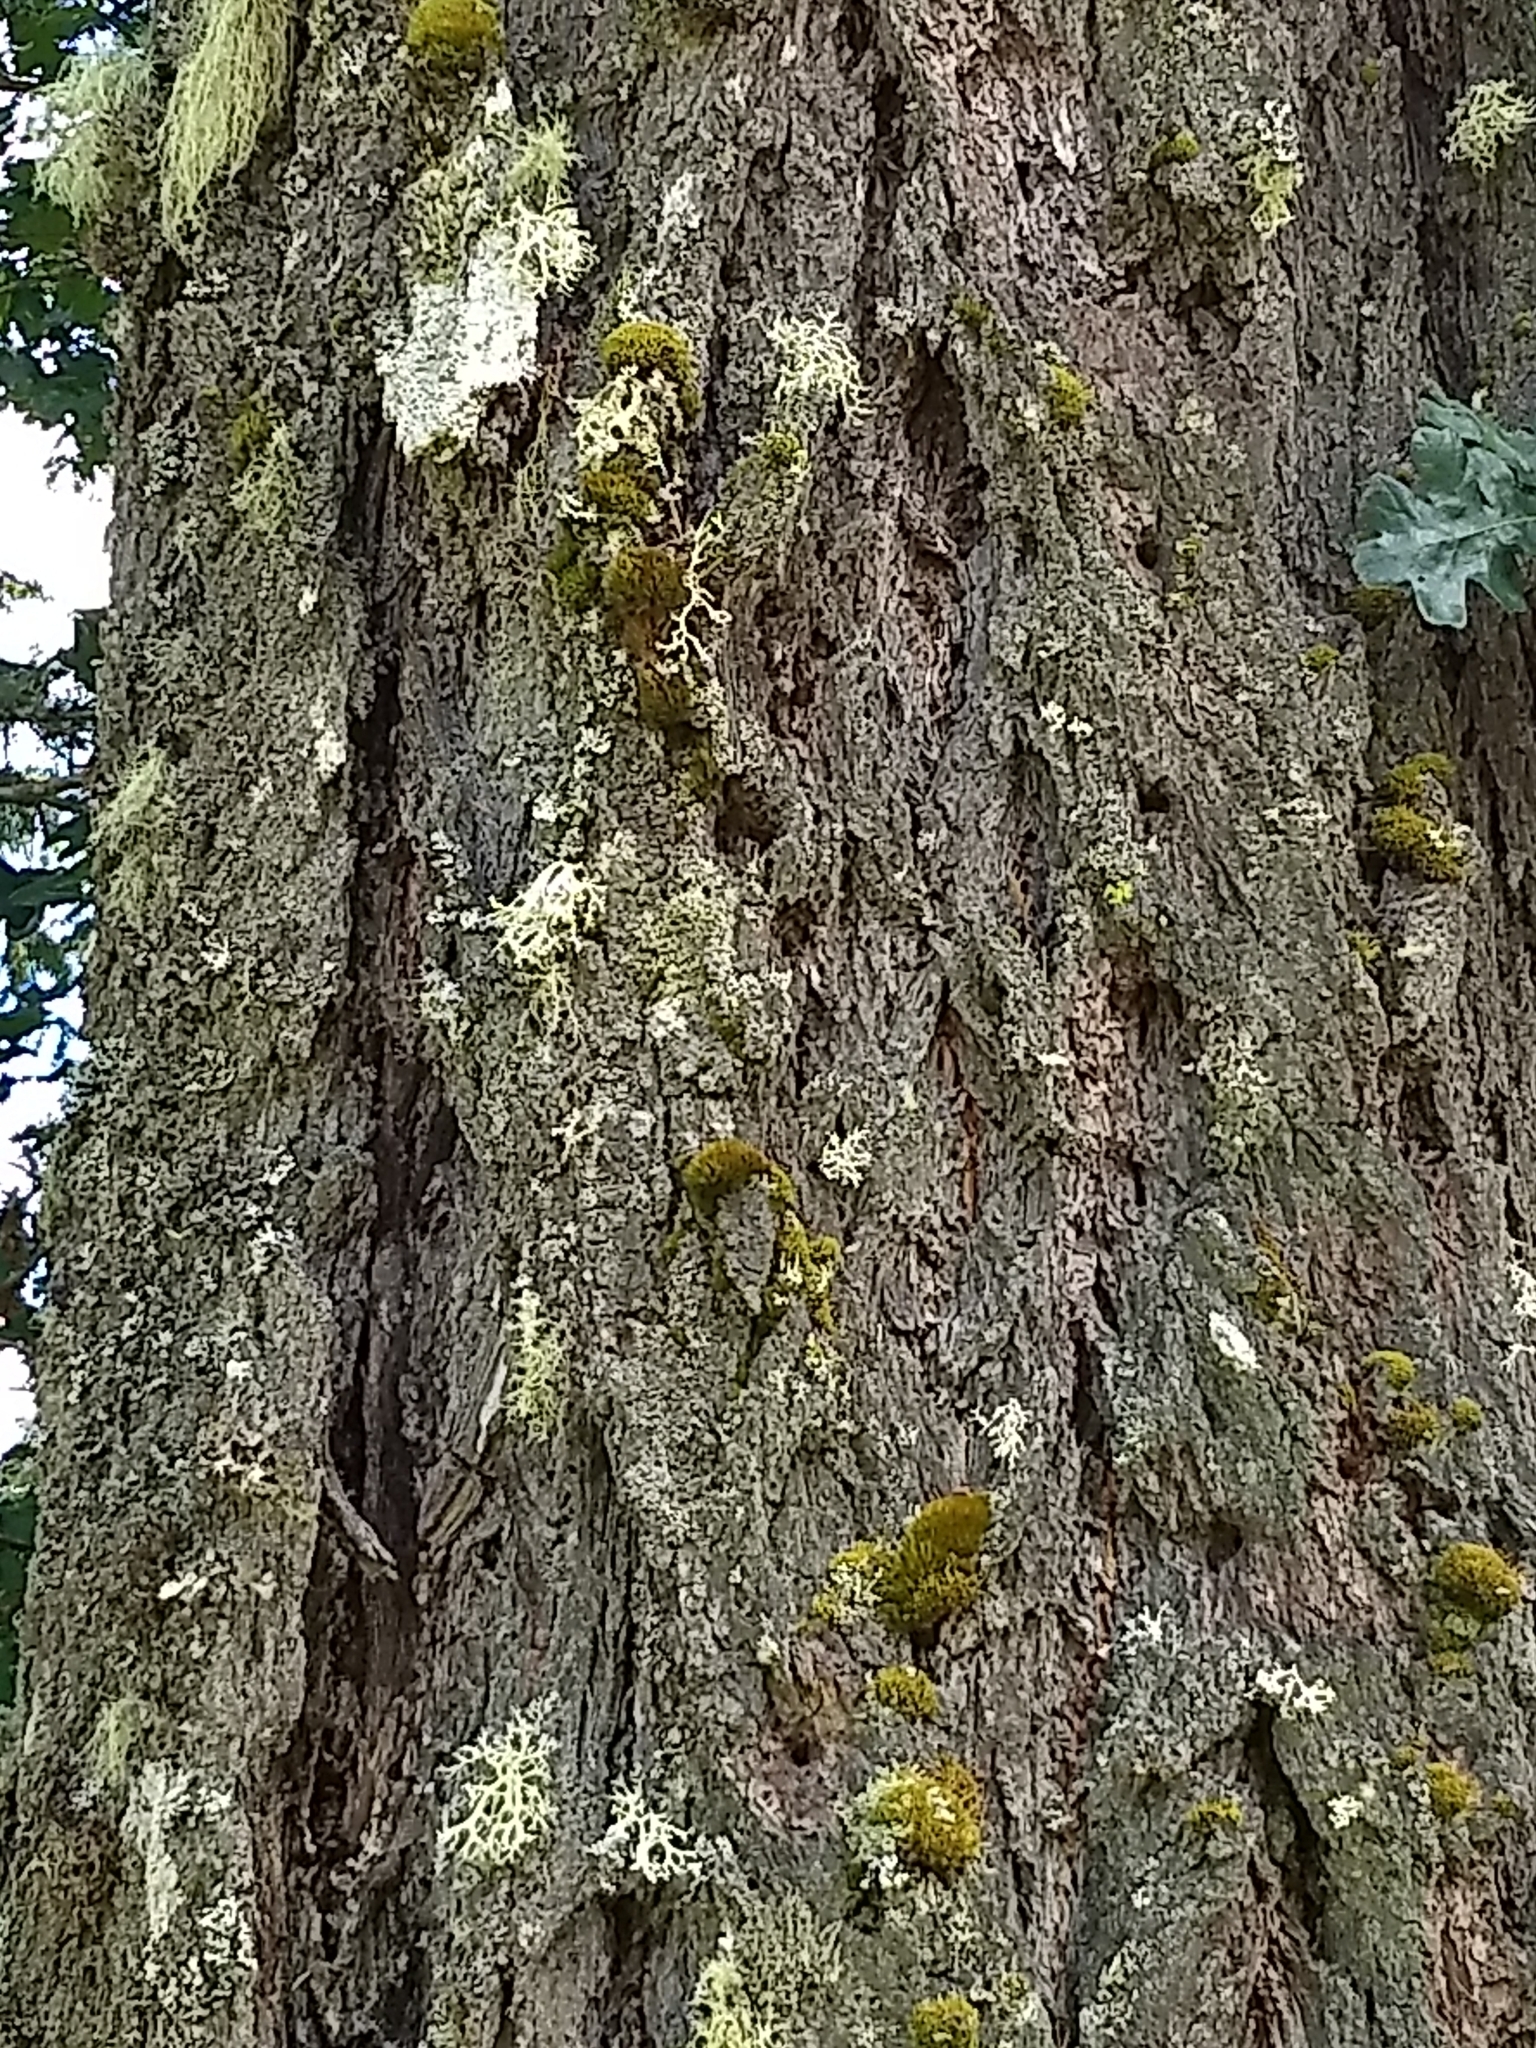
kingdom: Plantae
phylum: Tracheophyta
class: Pinopsida
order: Pinales
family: Pinaceae
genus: Pseudotsuga
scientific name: Pseudotsuga menziesii
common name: Douglas fir
